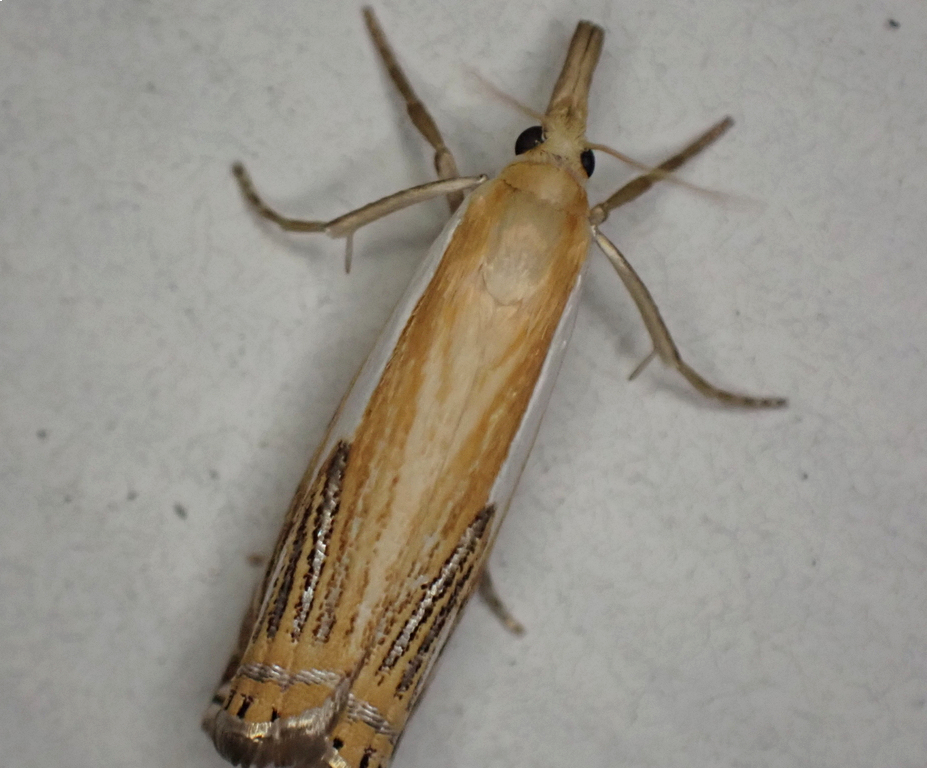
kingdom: Animalia
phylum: Arthropoda
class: Insecta
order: Lepidoptera
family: Crambidae
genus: Crambus
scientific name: Crambus agitatellus
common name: Double-banded grass-veneer
